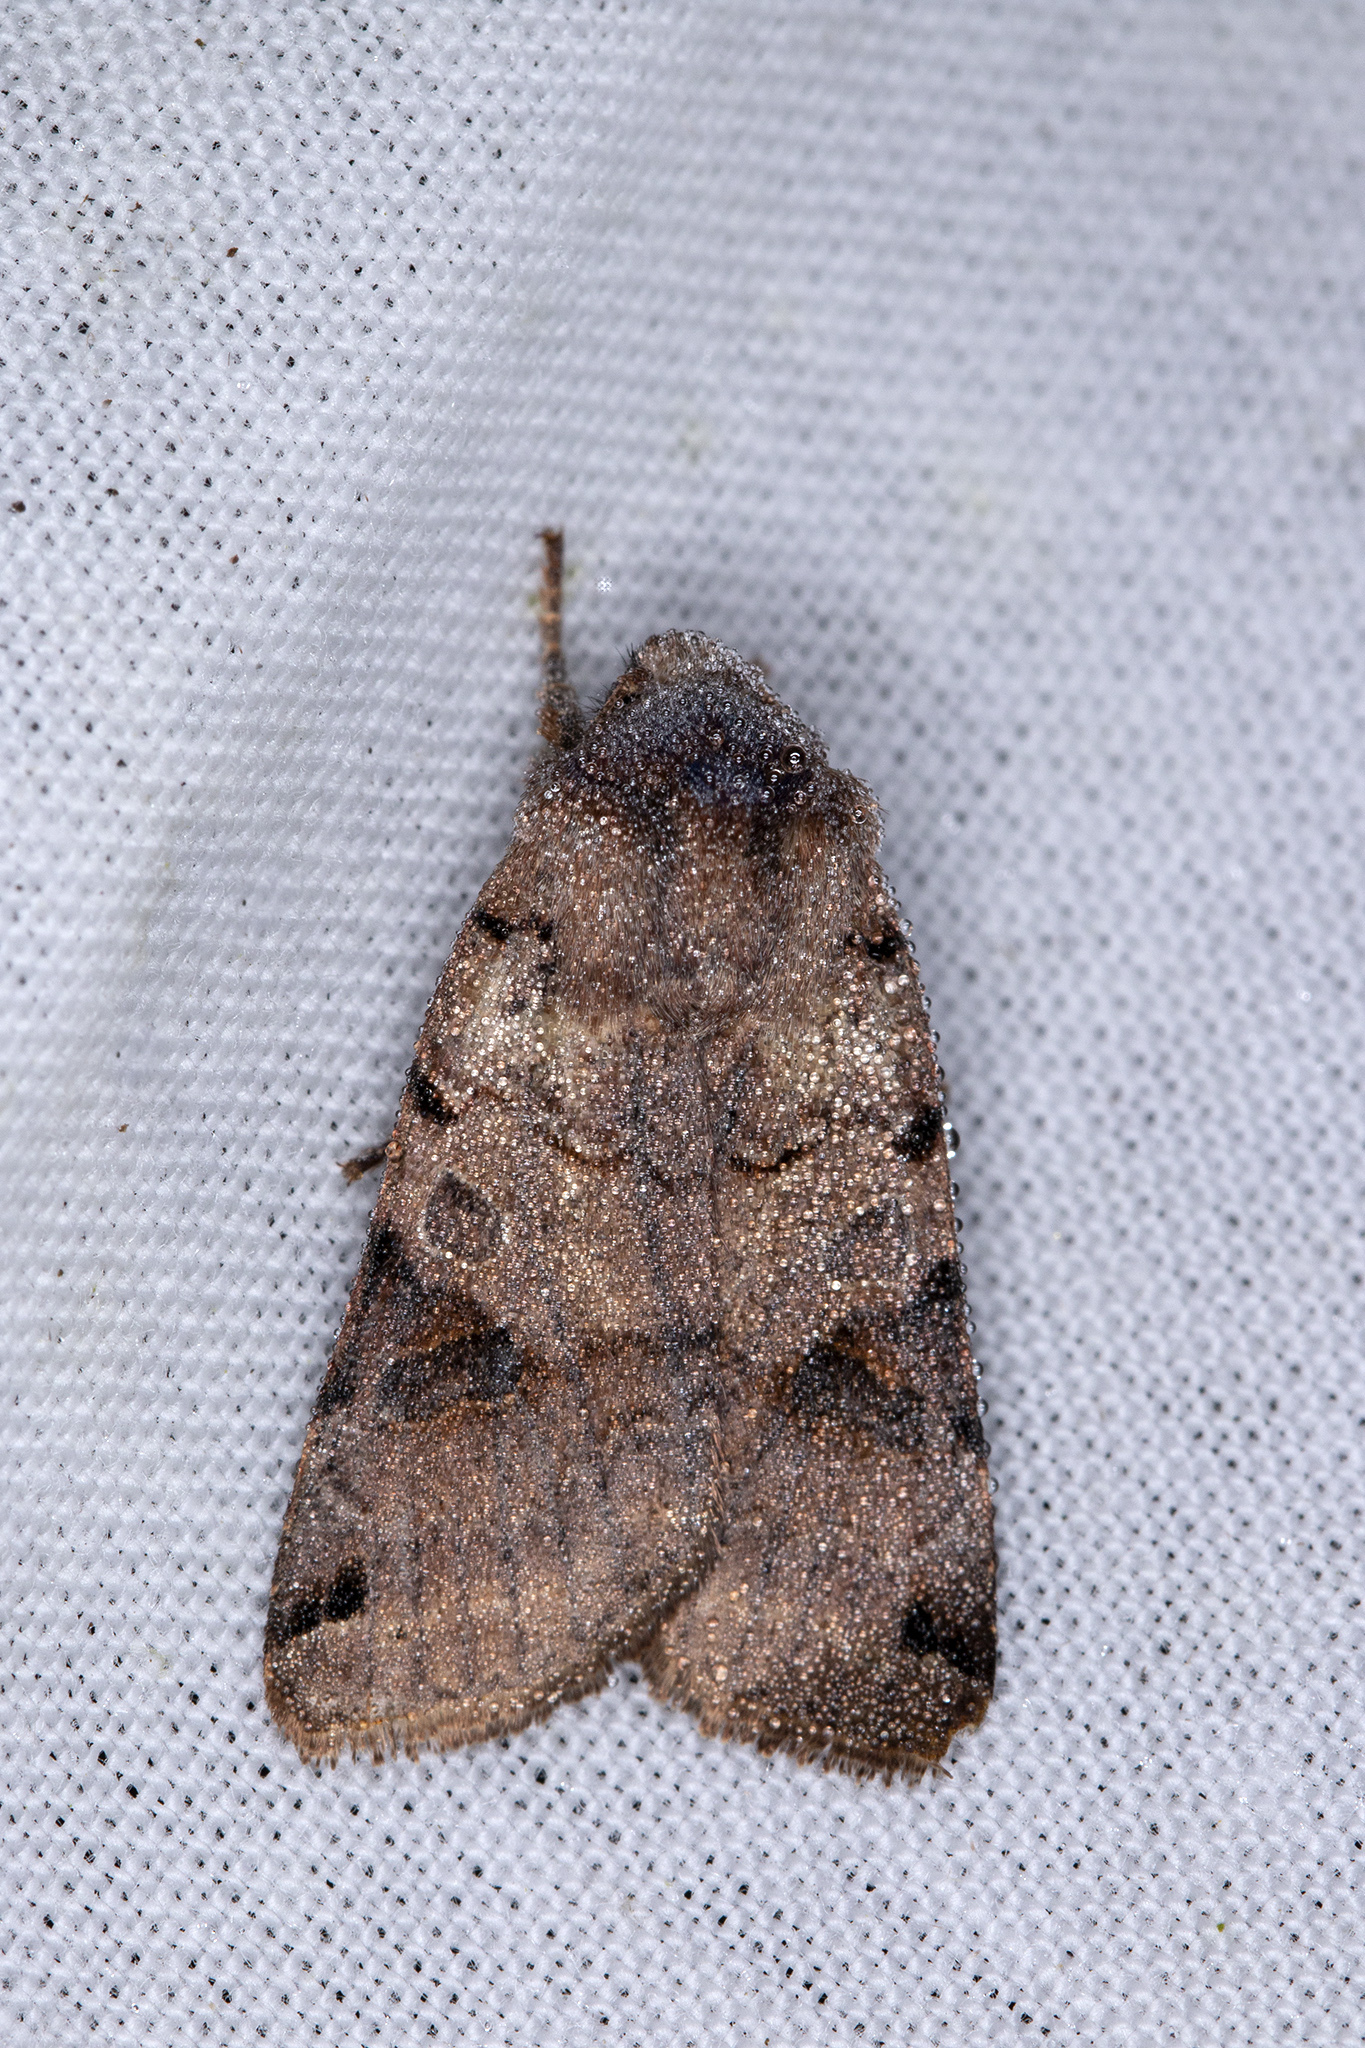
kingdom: Animalia
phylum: Arthropoda
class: Insecta
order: Lepidoptera
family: Noctuidae
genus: Agrochola
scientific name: Agrochola litura
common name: Brown-spot pinion
